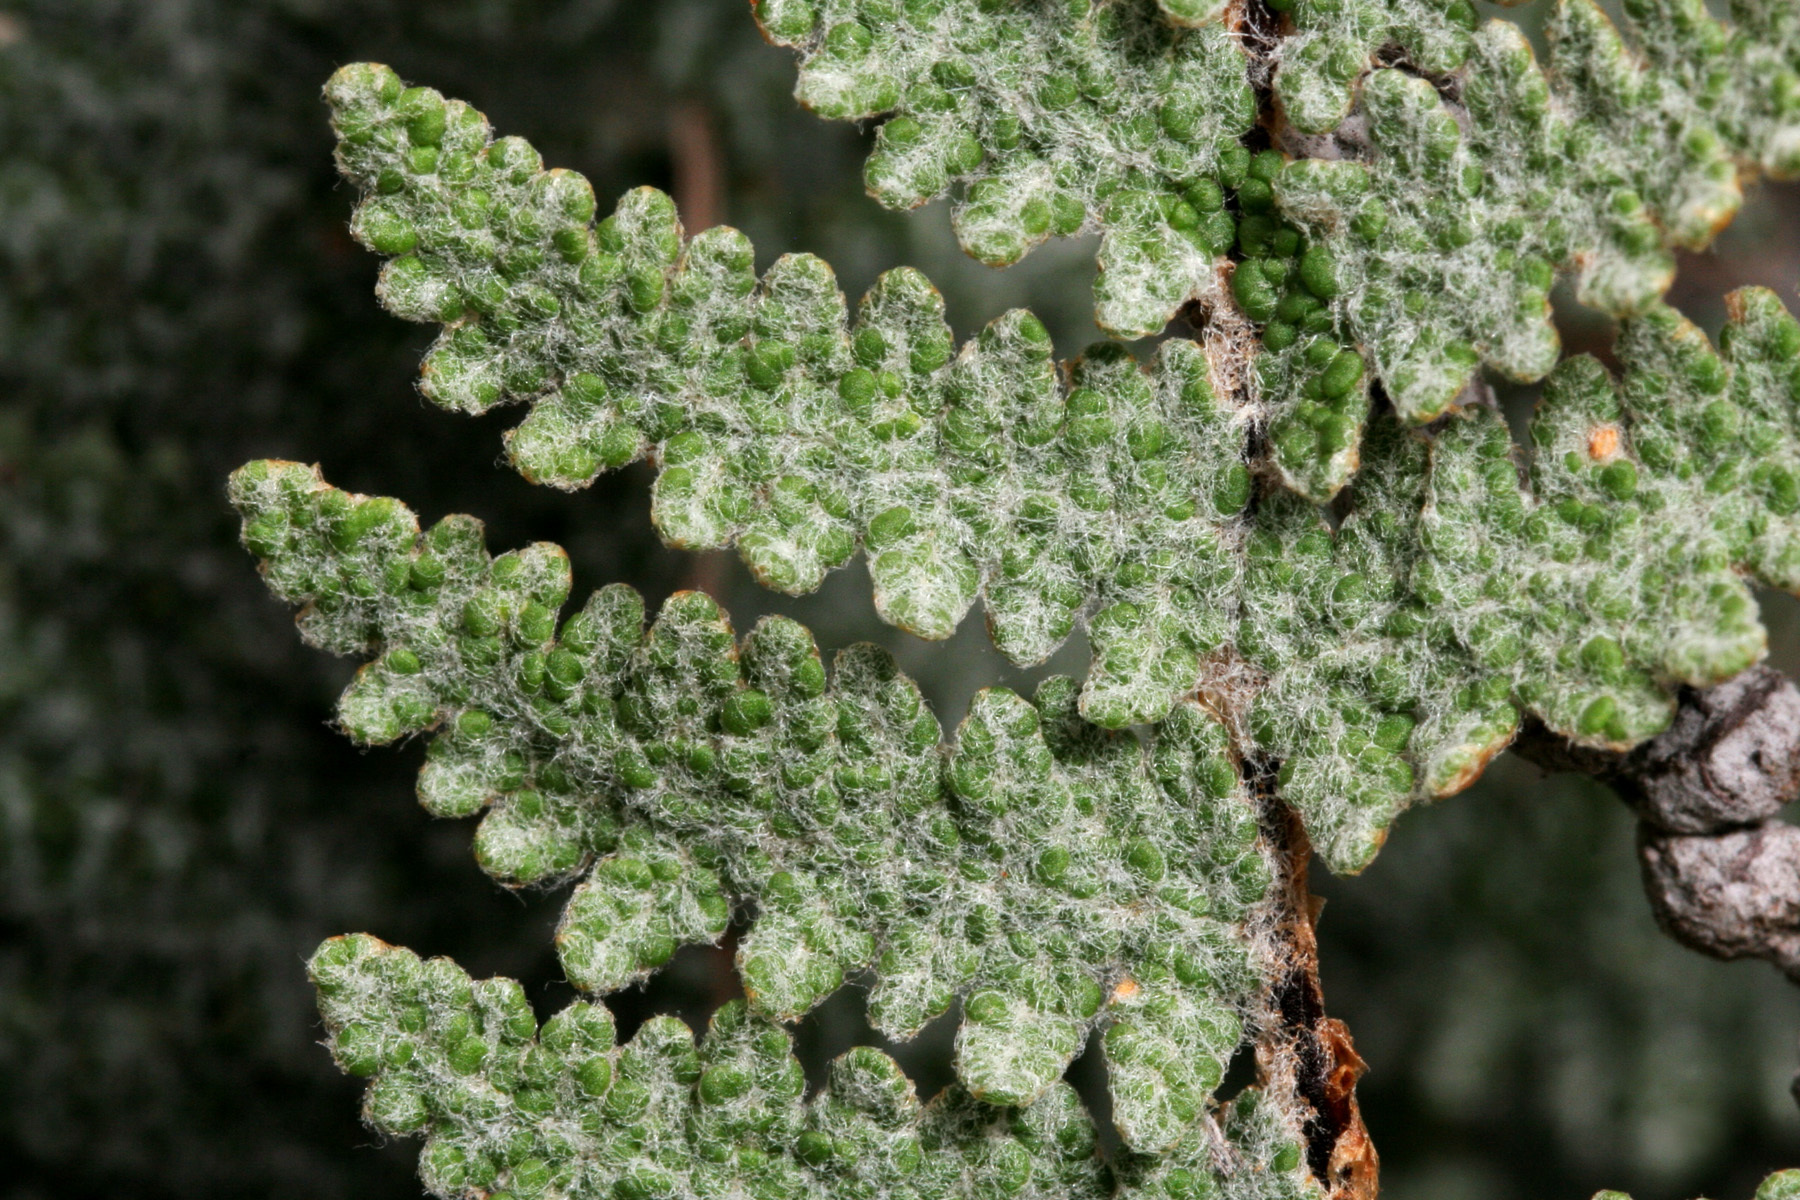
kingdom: Plantae
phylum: Tracheophyta
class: Polypodiopsida
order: Polypodiales
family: Pteridaceae
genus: Myriopteris
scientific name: Myriopteris lindheimeri
